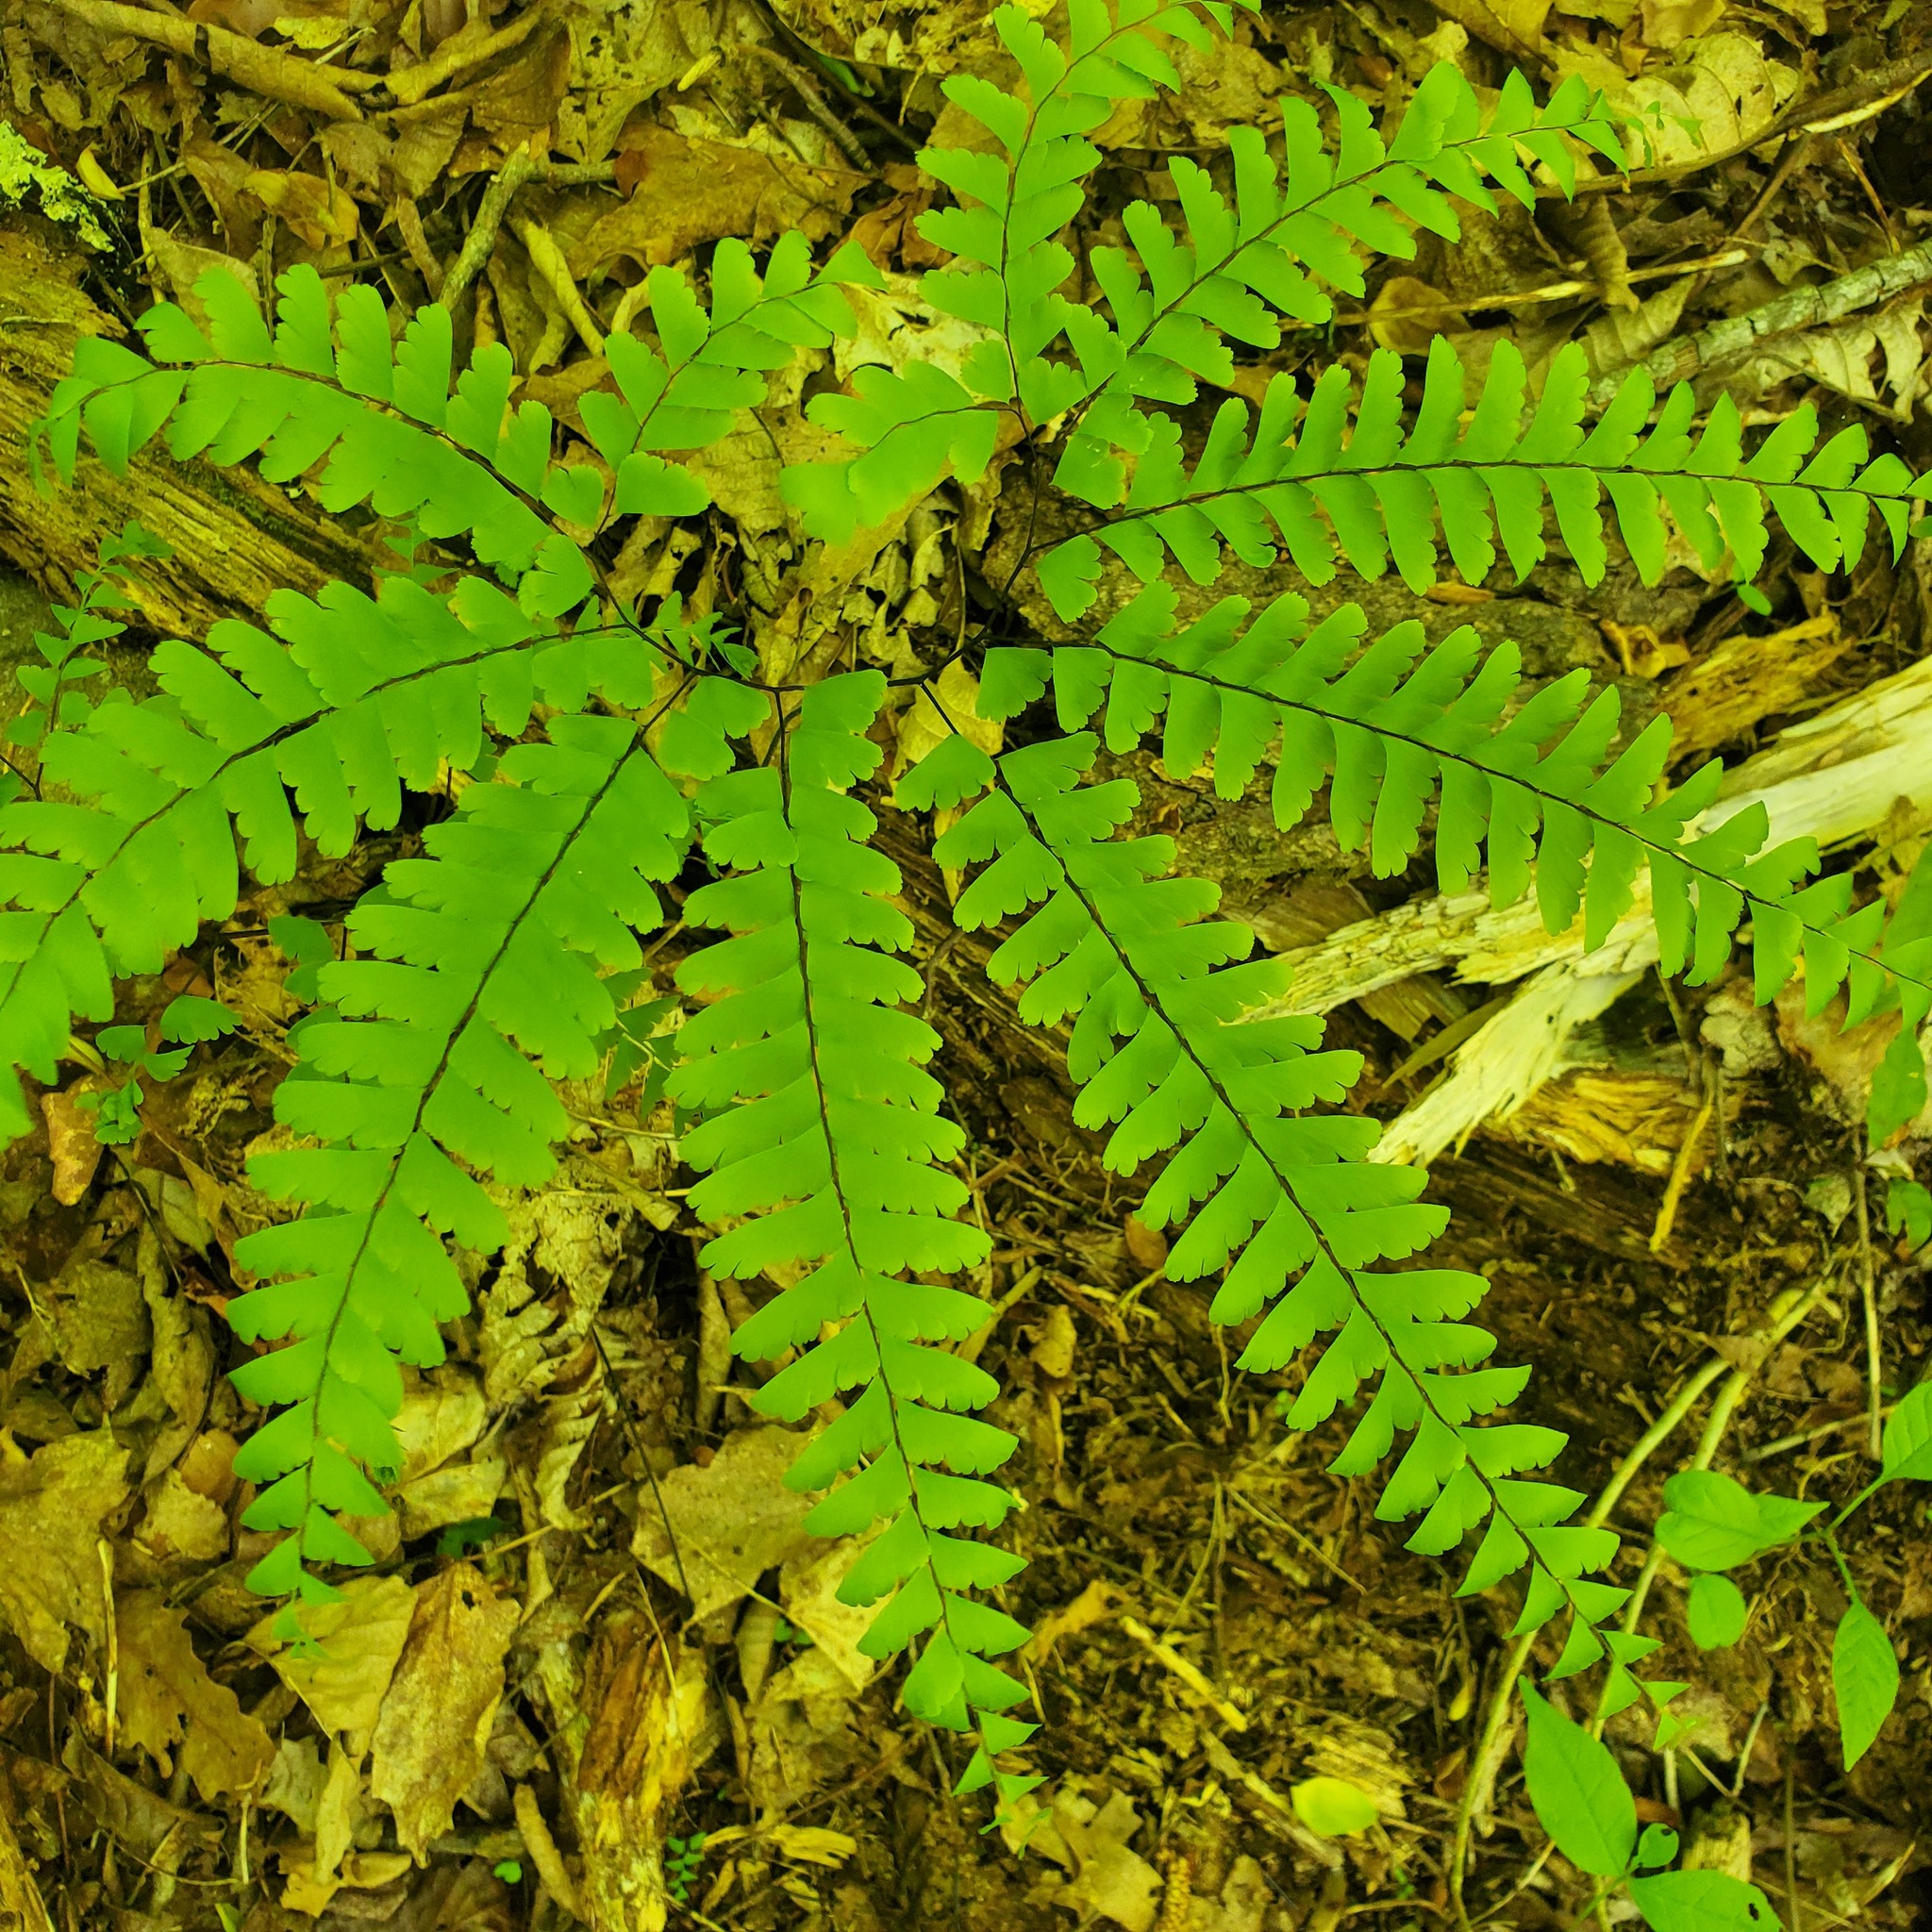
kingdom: Plantae
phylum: Tracheophyta
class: Polypodiopsida
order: Polypodiales
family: Pteridaceae
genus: Adiantum
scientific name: Adiantum pedatum
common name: Five-finger fern
